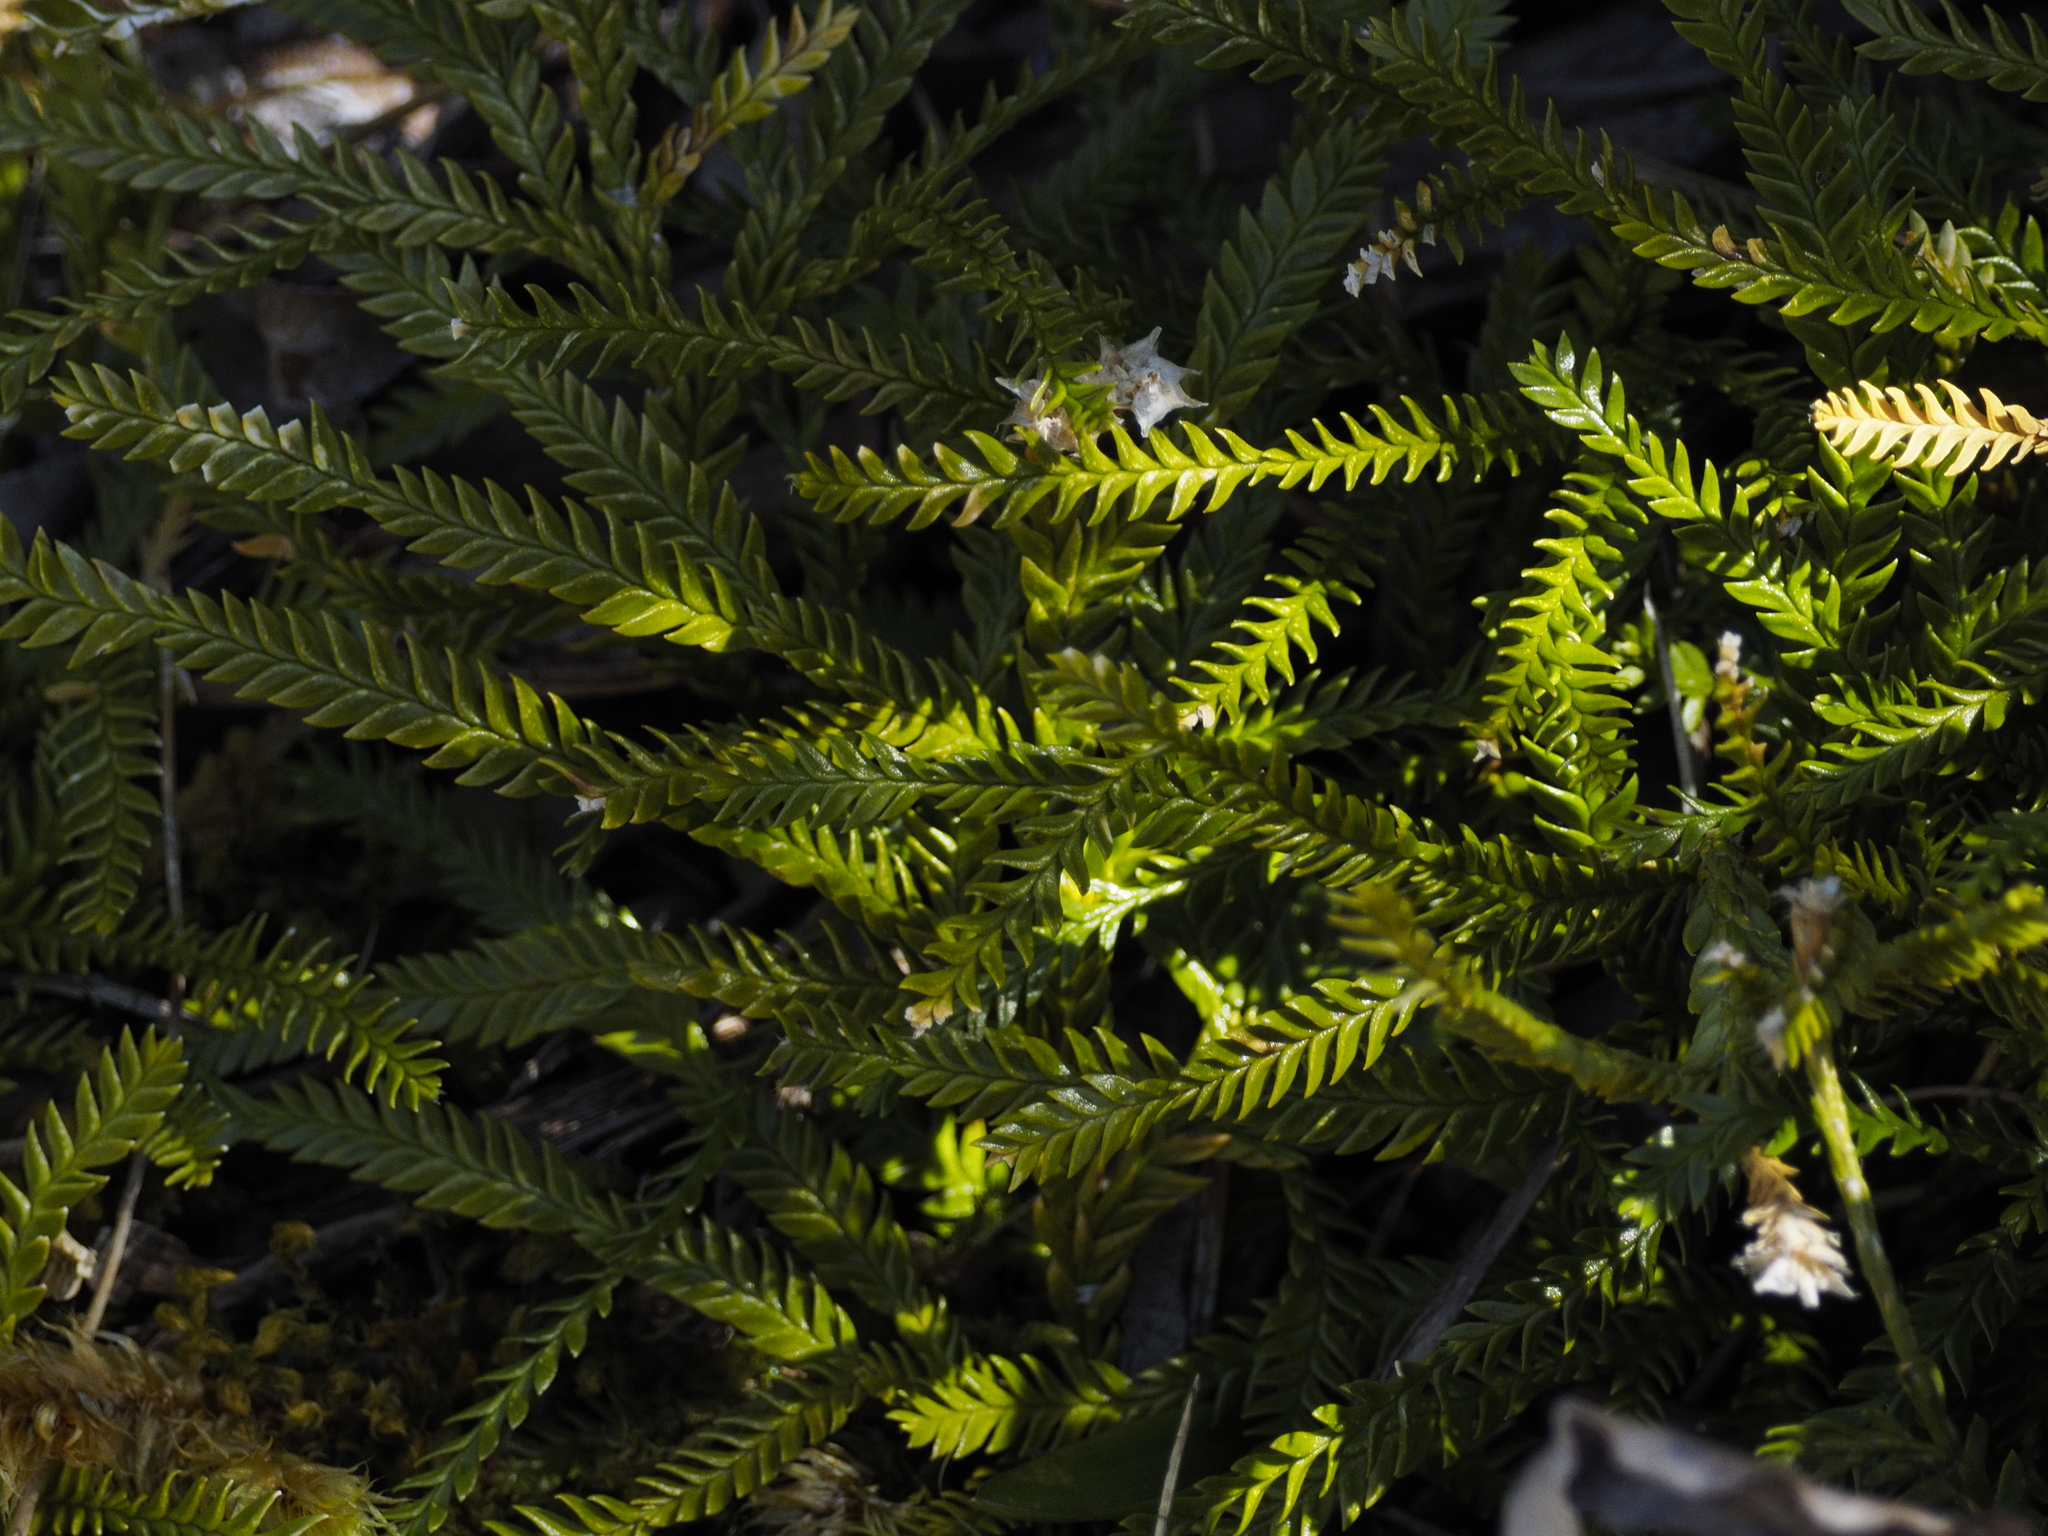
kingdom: Plantae
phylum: Tracheophyta
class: Lycopodiopsida
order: Lycopodiales
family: Lycopodiaceae
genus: Diphasium
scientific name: Diphasium scariosum
